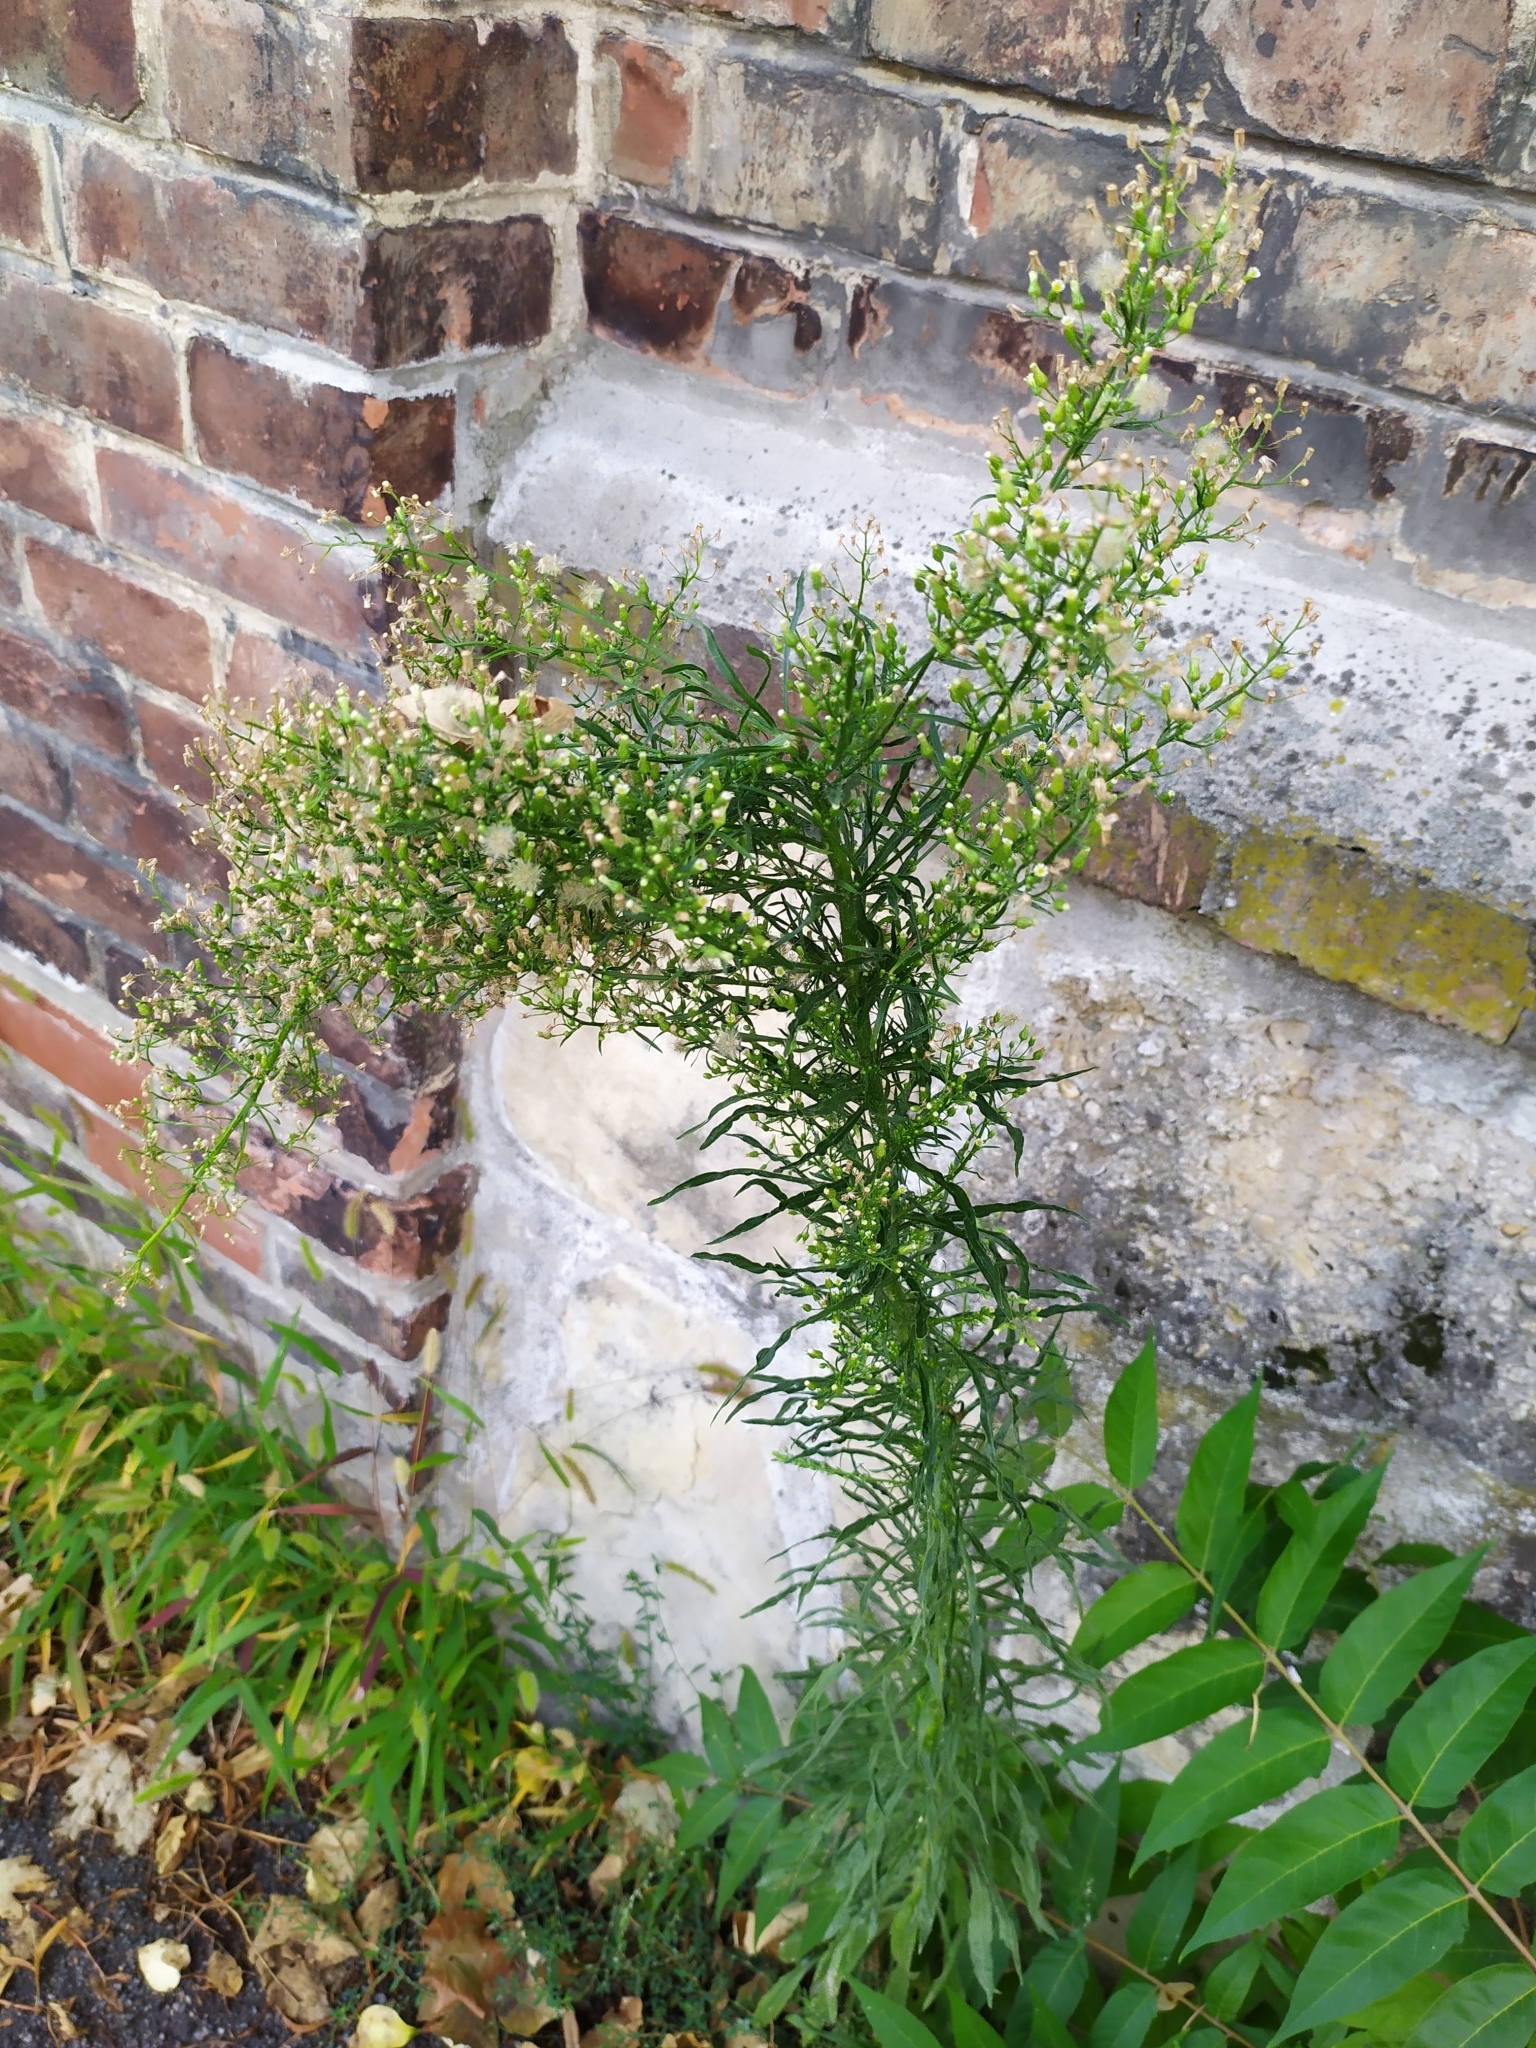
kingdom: Plantae
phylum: Tracheophyta
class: Magnoliopsida
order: Asterales
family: Asteraceae
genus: Erigeron
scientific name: Erigeron canadensis
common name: Canadian fleabane
